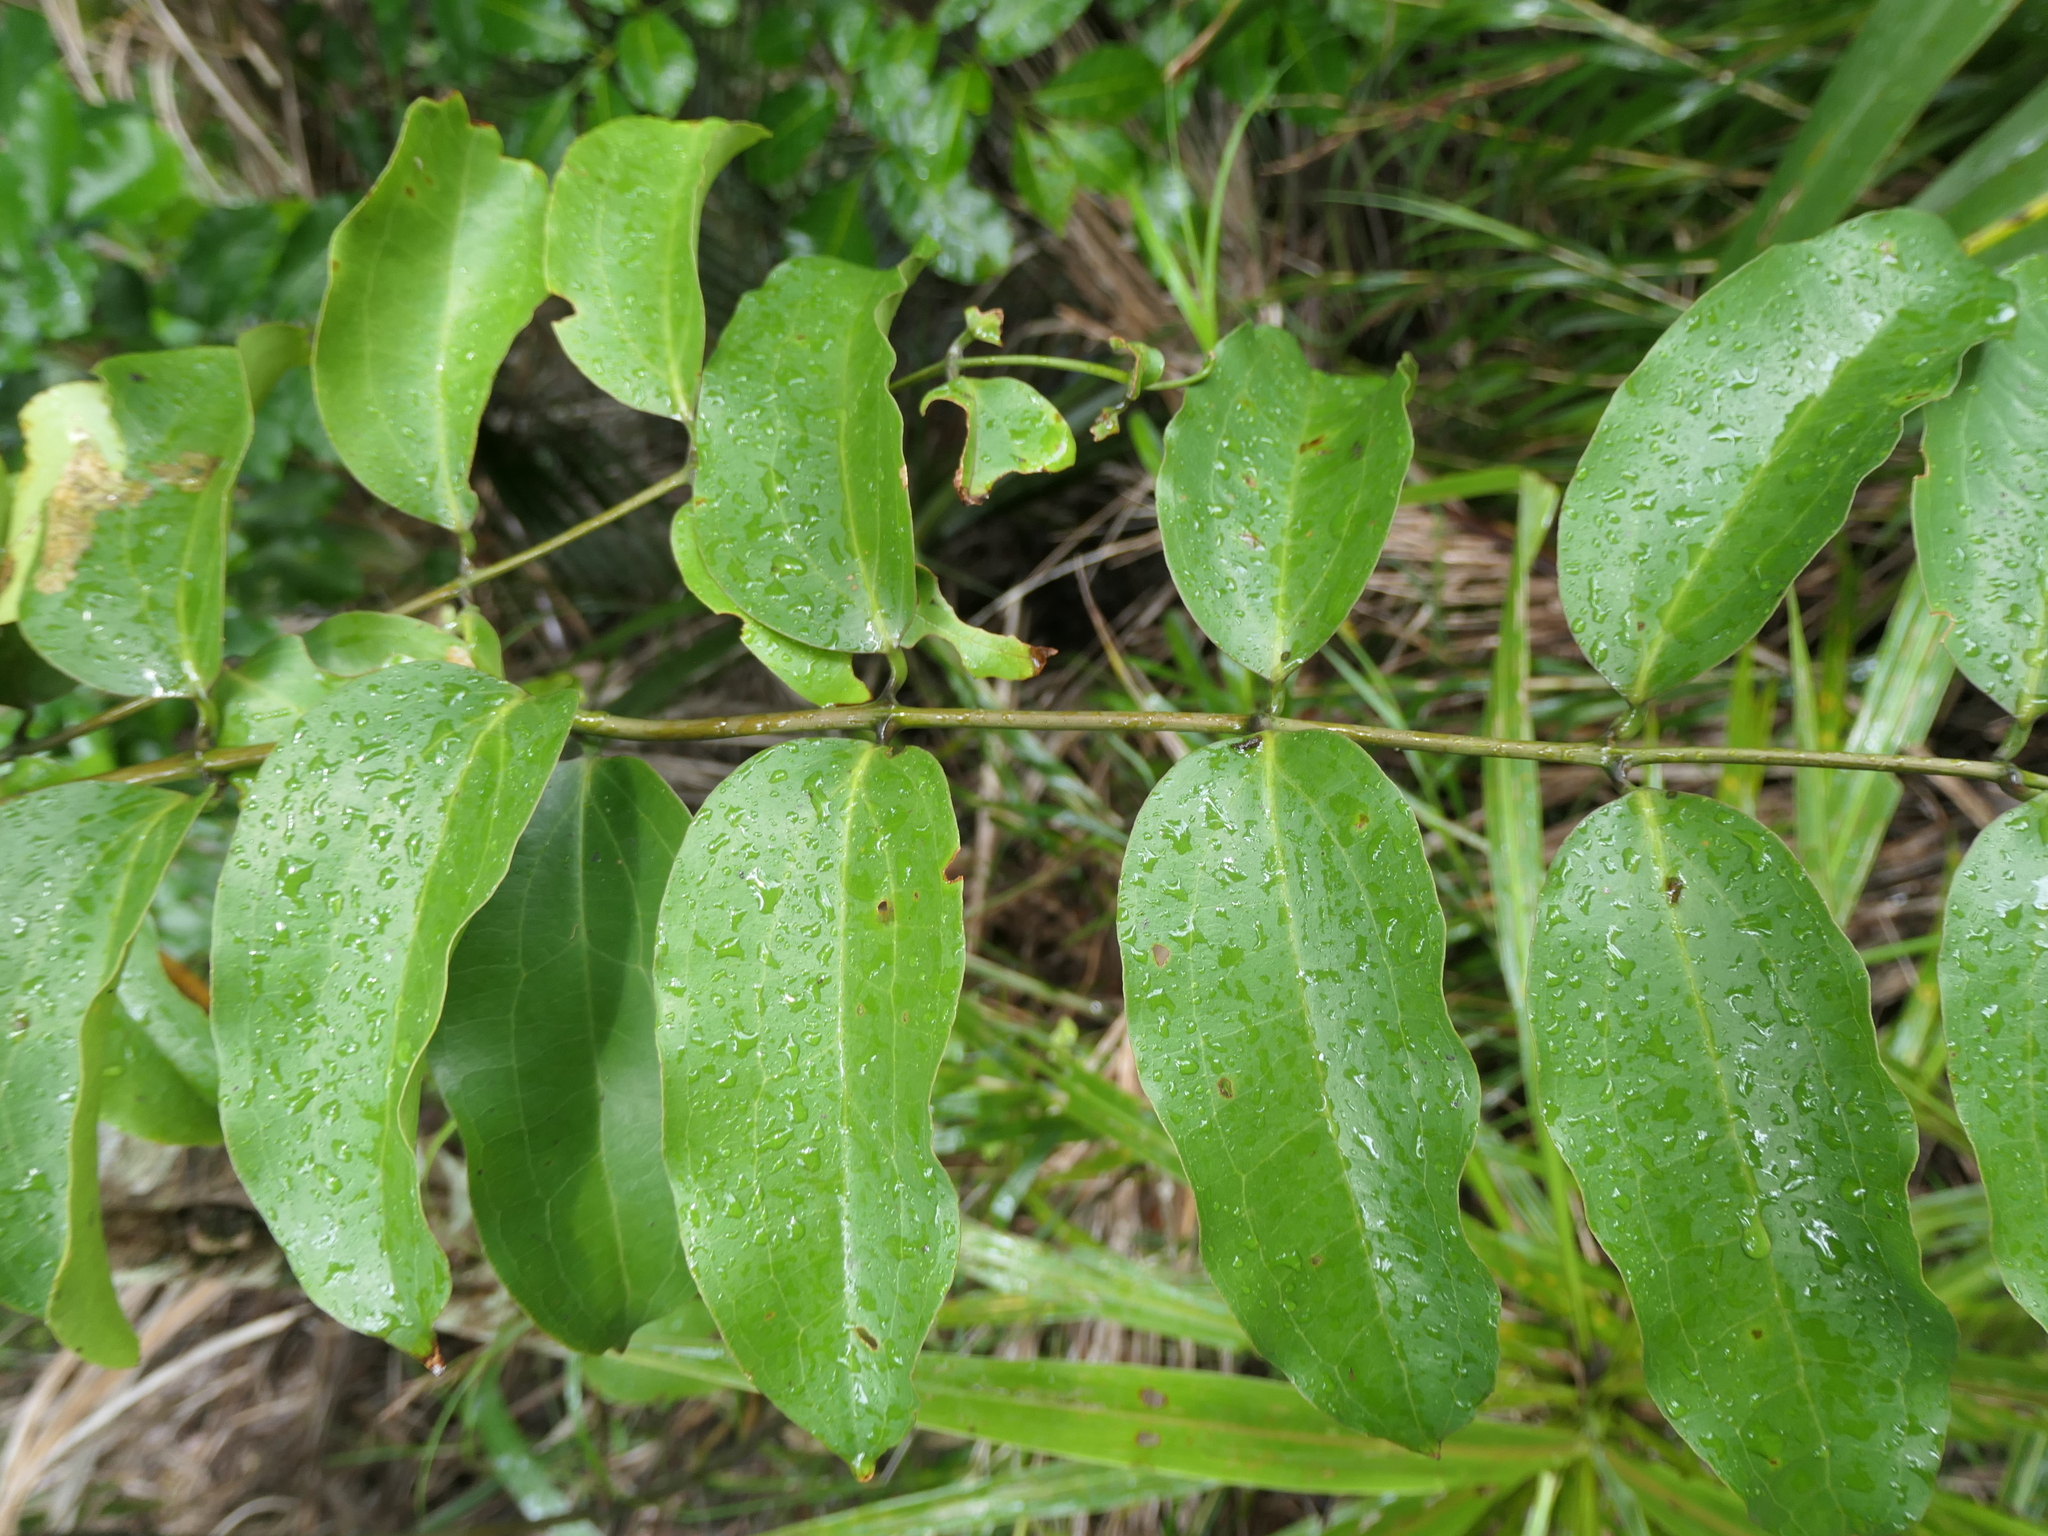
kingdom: Plantae
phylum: Tracheophyta
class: Liliopsida
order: Liliales
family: Ripogonaceae
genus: Ripogonum
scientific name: Ripogonum scandens
